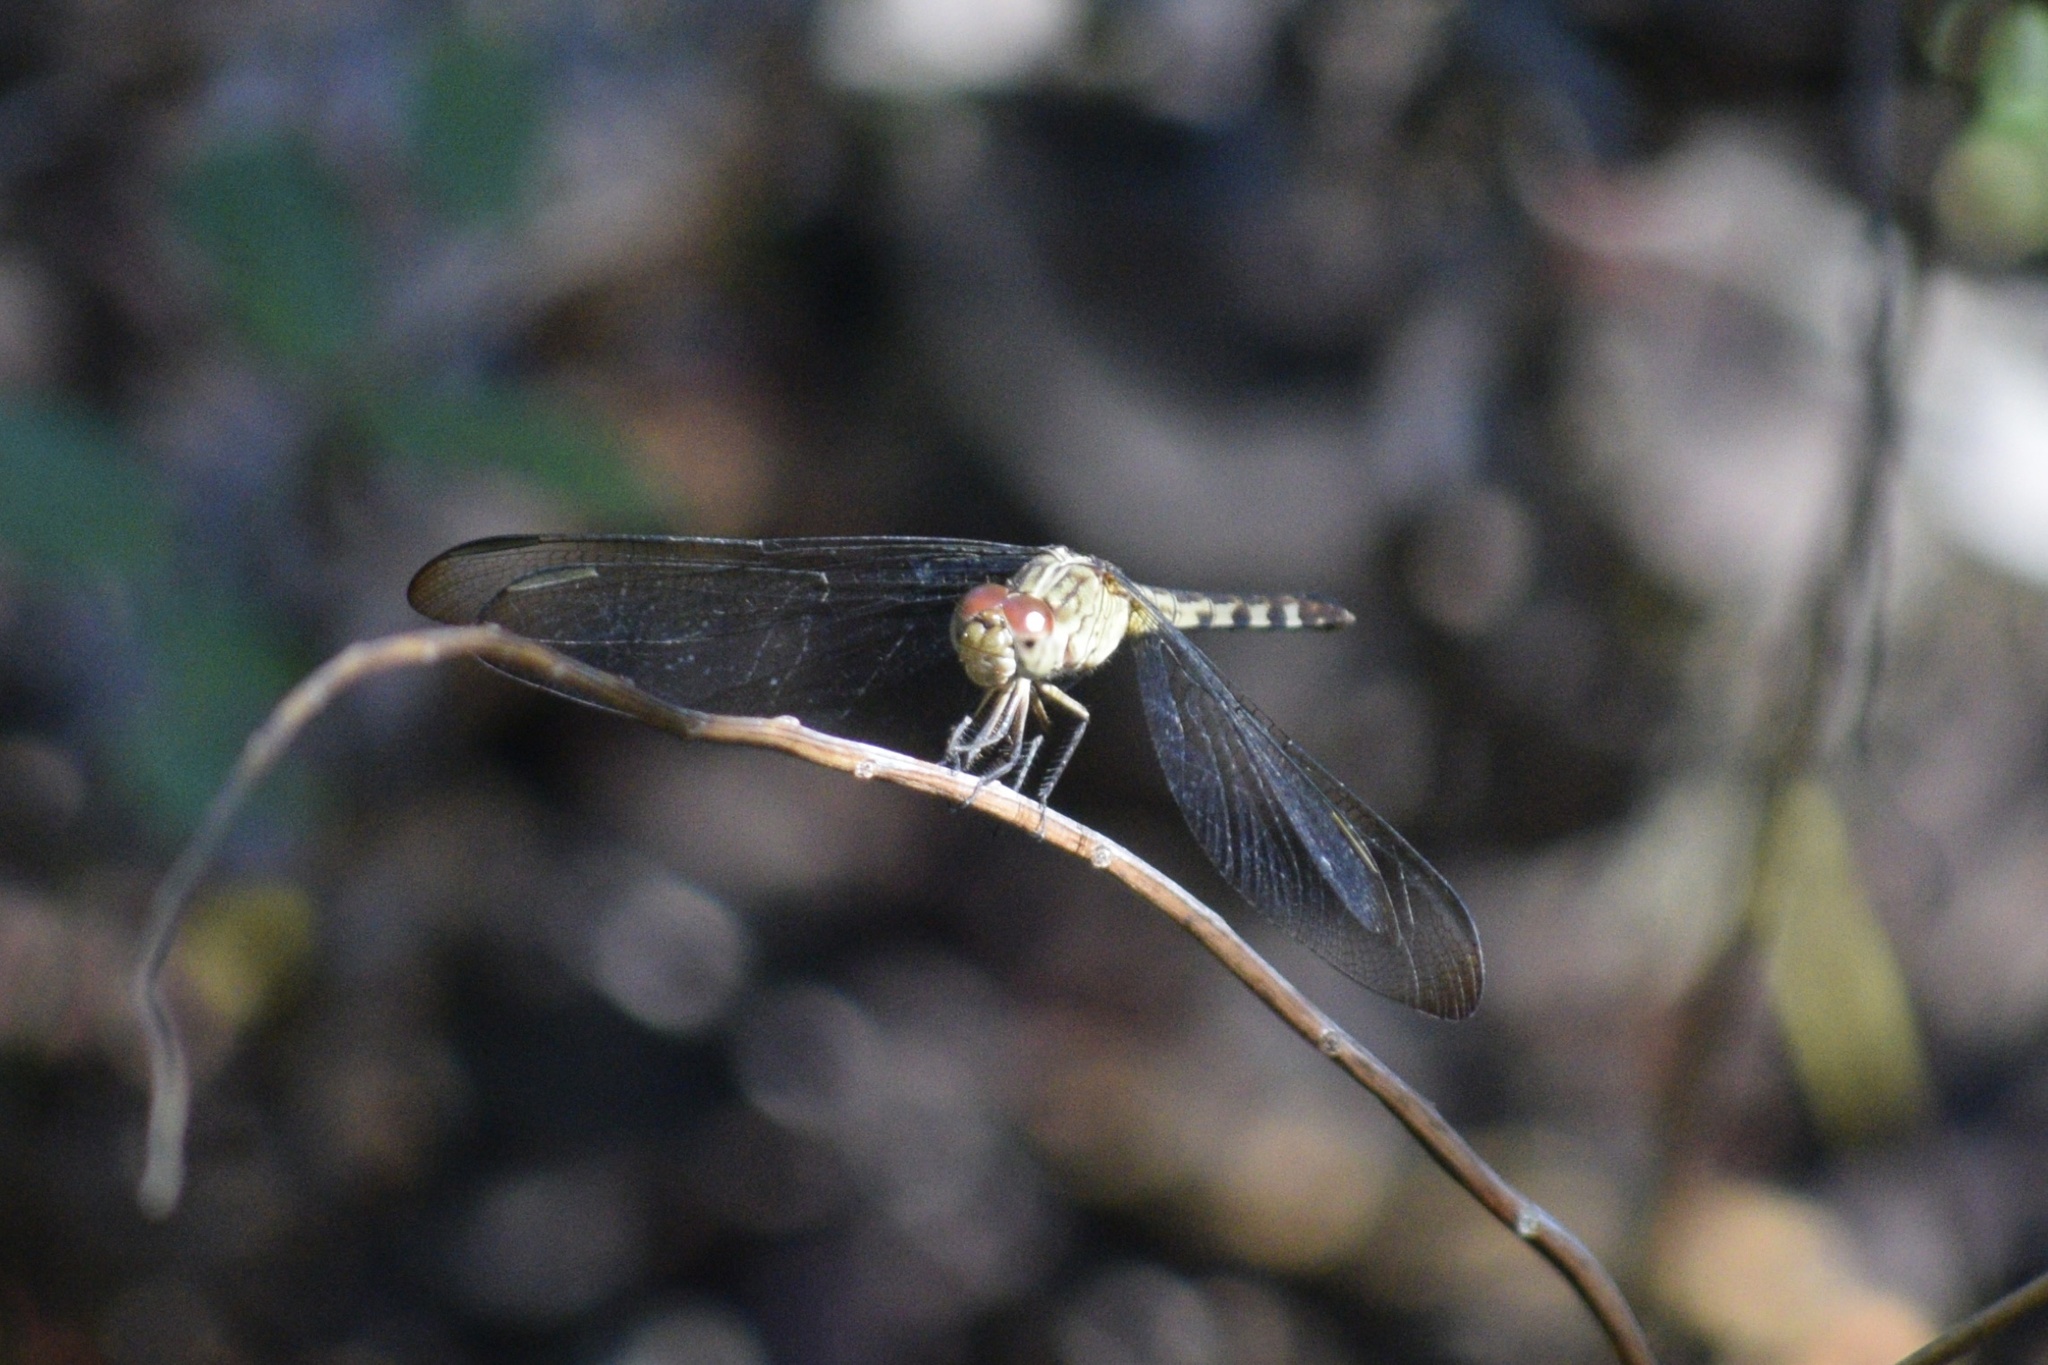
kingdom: Animalia
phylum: Arthropoda
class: Insecta
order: Odonata
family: Libellulidae
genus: Erythrodiplax
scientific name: Erythrodiplax umbrata
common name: Band-winged dragonlet
